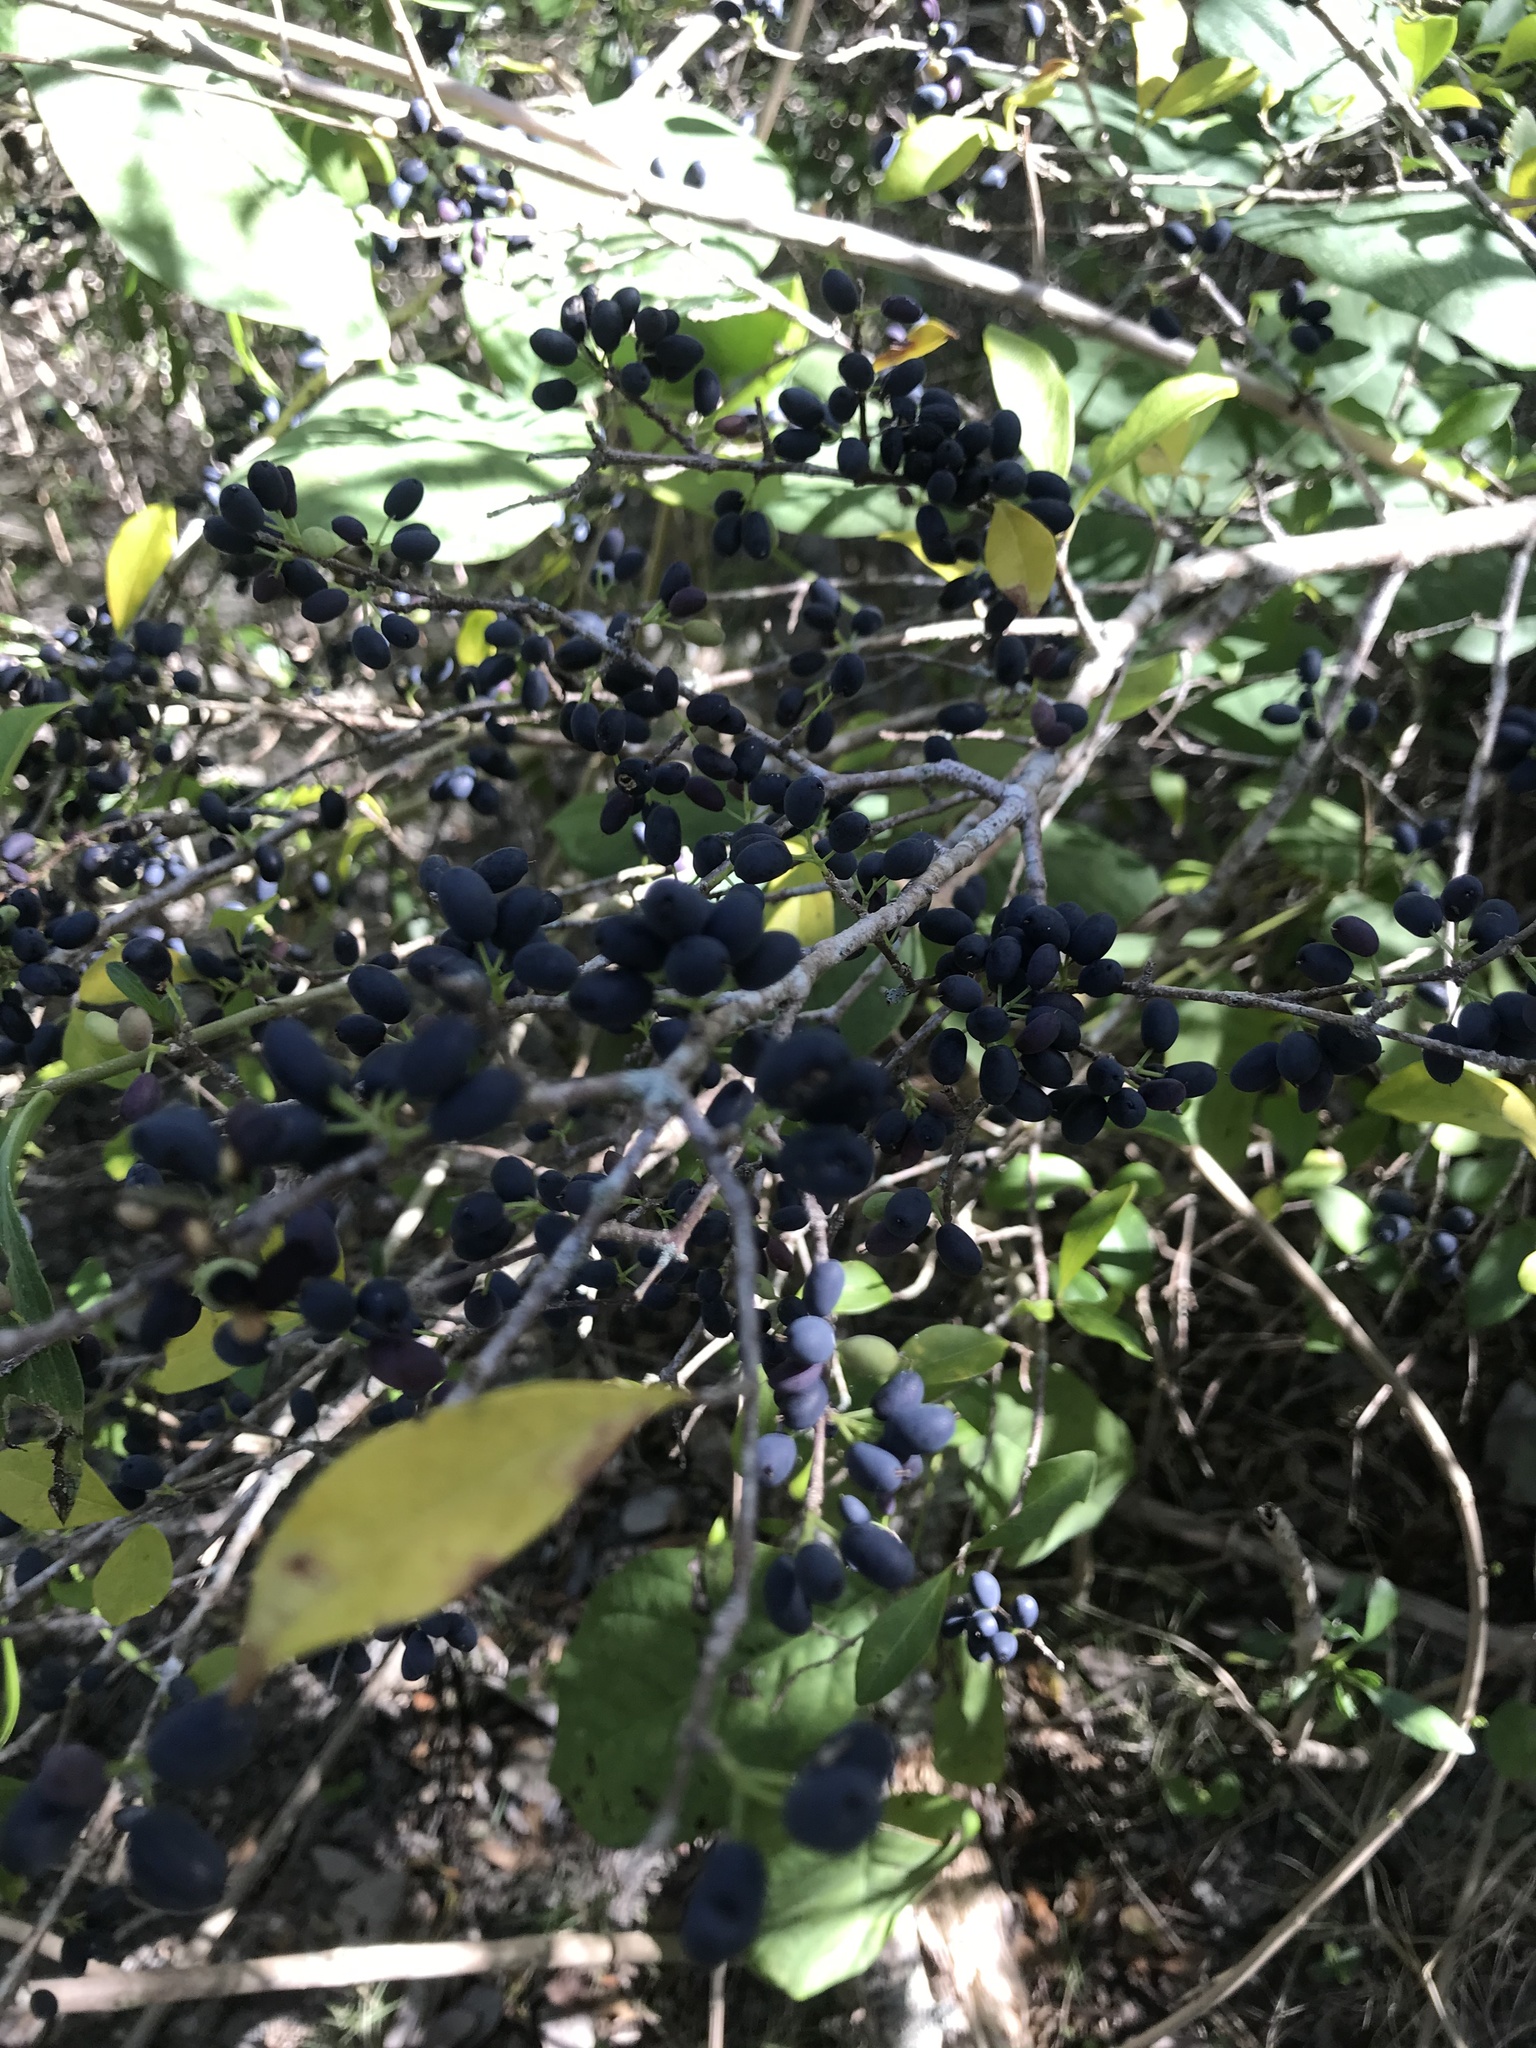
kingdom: Plantae
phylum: Tracheophyta
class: Magnoliopsida
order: Lamiales
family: Oleaceae
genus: Forestiera
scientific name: Forestiera segregata
